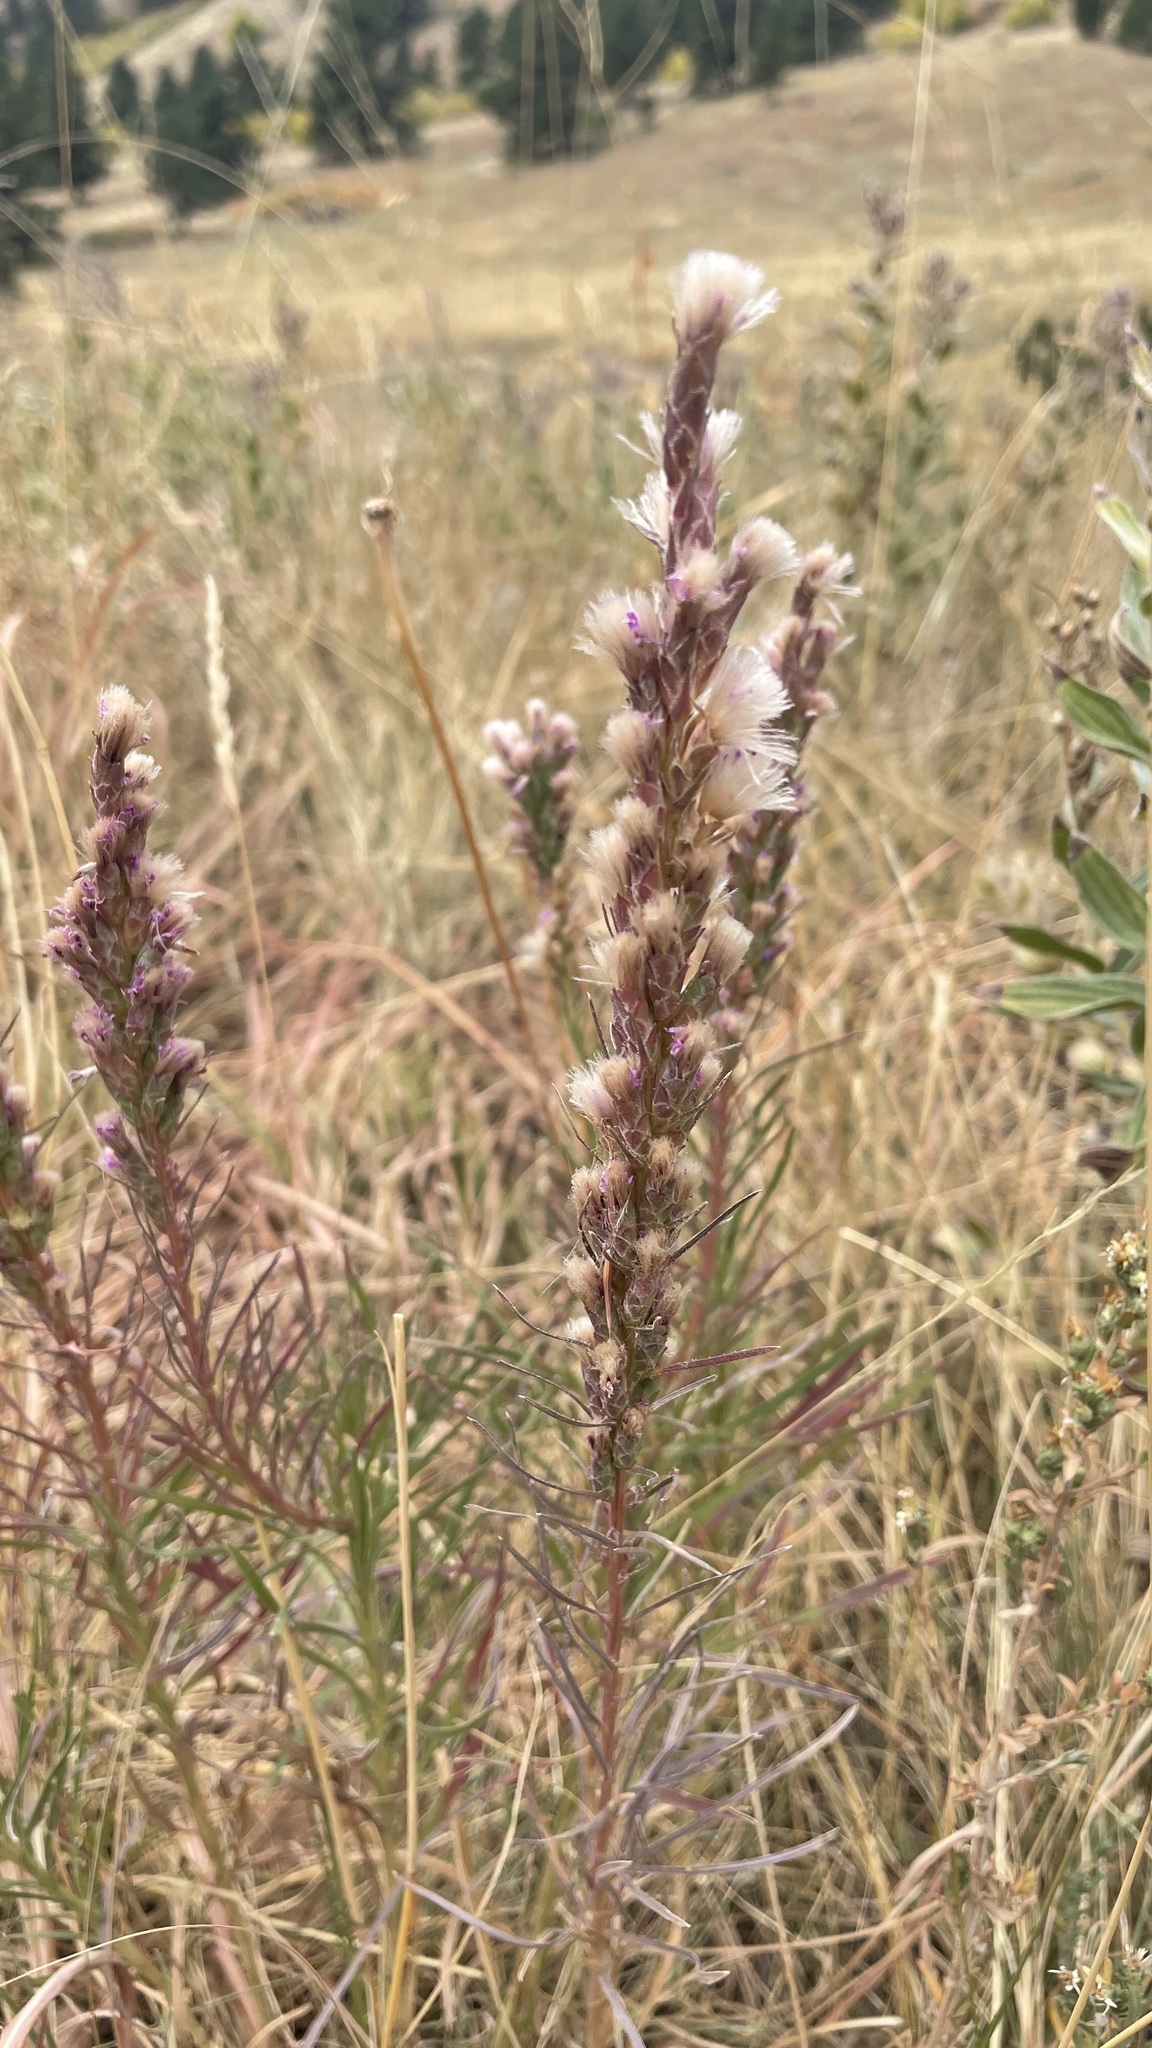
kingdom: Plantae
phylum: Tracheophyta
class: Magnoliopsida
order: Asterales
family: Asteraceae
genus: Liatris
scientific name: Liatris punctata
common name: Dotted gayfeather
